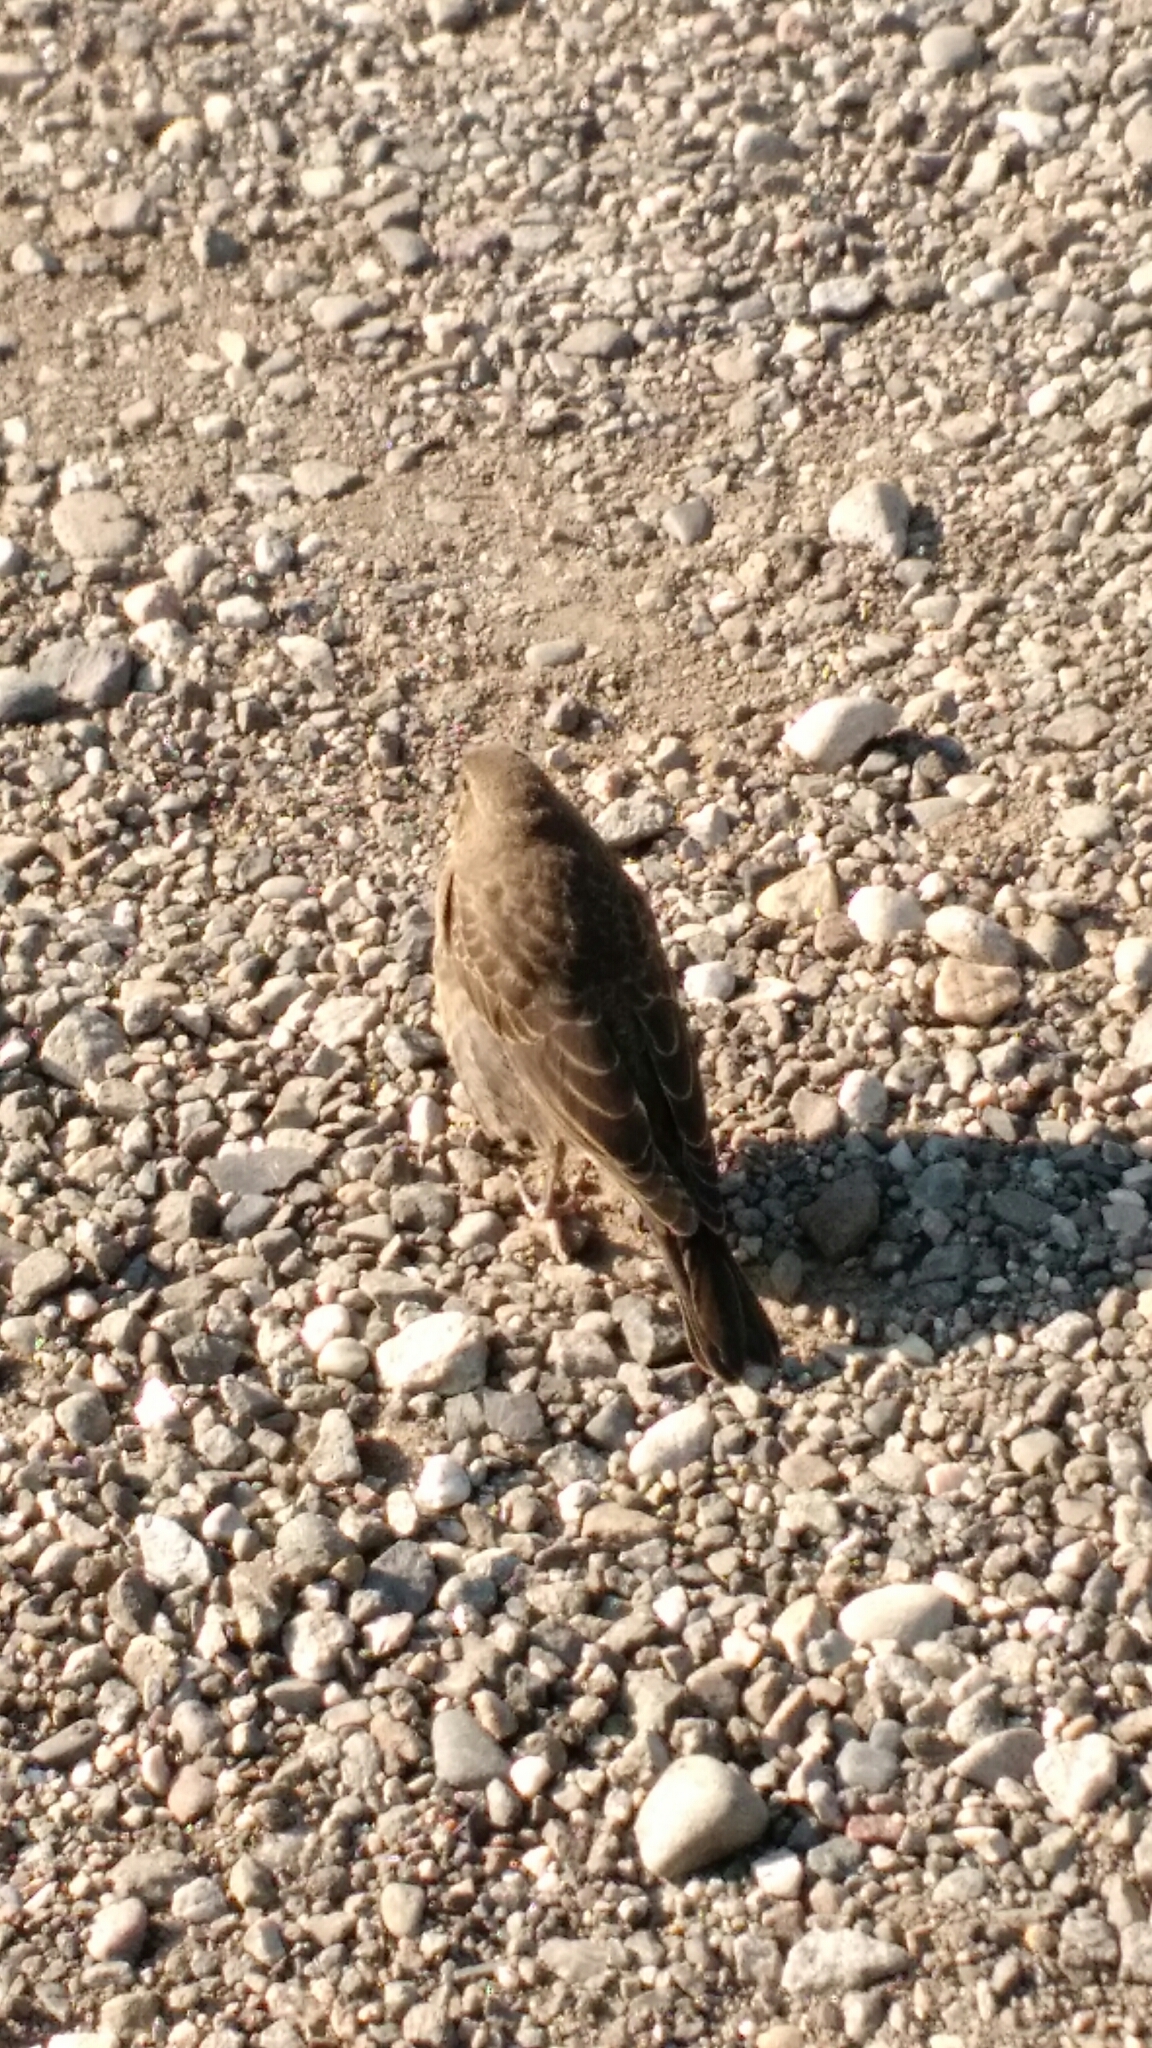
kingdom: Animalia
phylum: Chordata
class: Aves
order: Passeriformes
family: Icteridae
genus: Molothrus
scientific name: Molothrus ater
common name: Brown-headed cowbird
